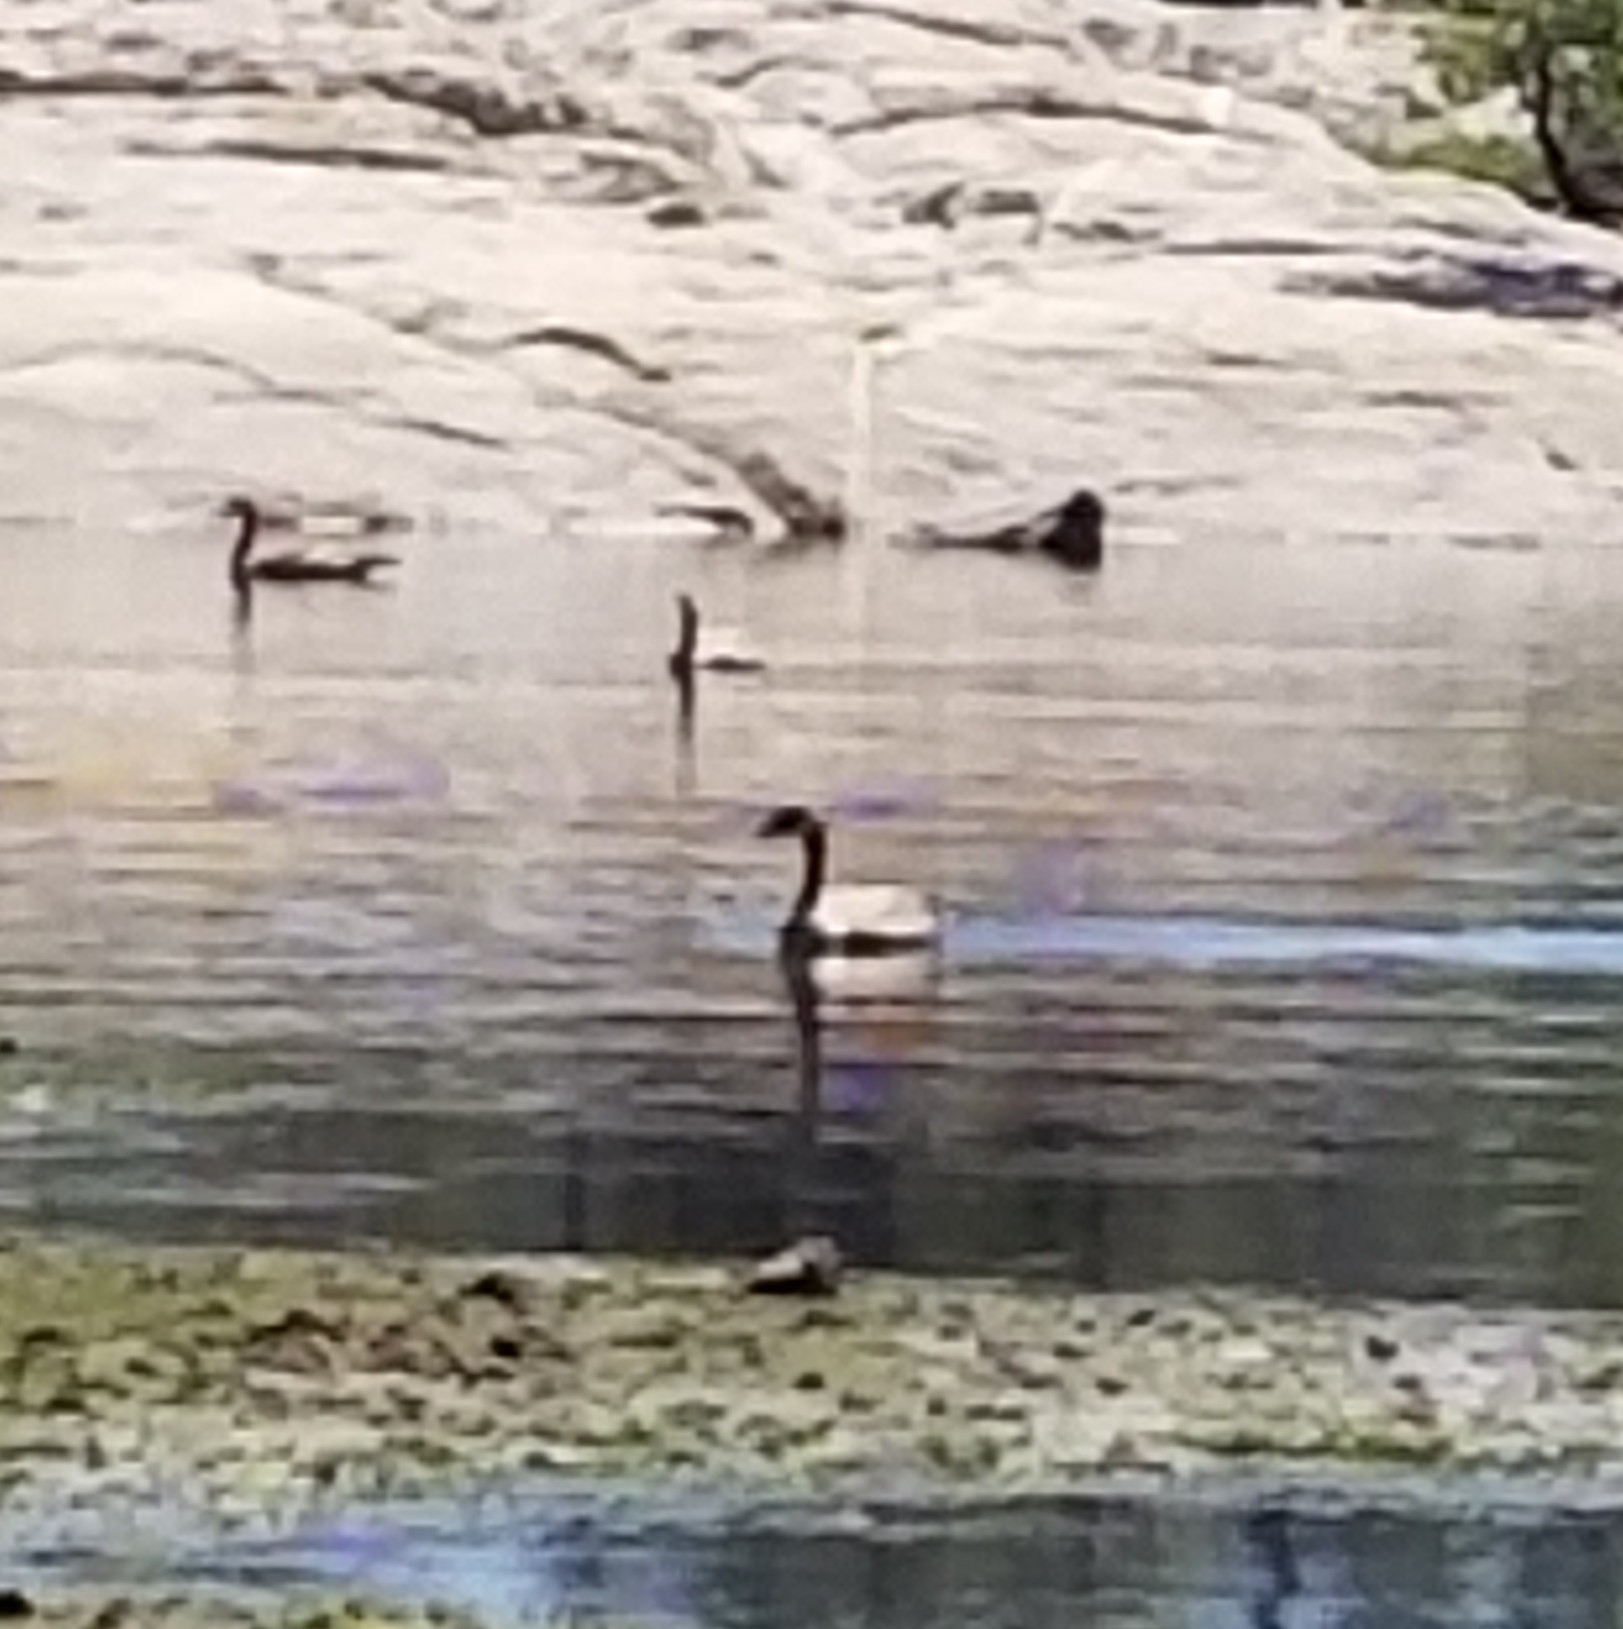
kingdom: Animalia
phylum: Chordata
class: Aves
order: Anseriformes
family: Anatidae
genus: Branta
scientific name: Branta canadensis
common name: Canada goose
